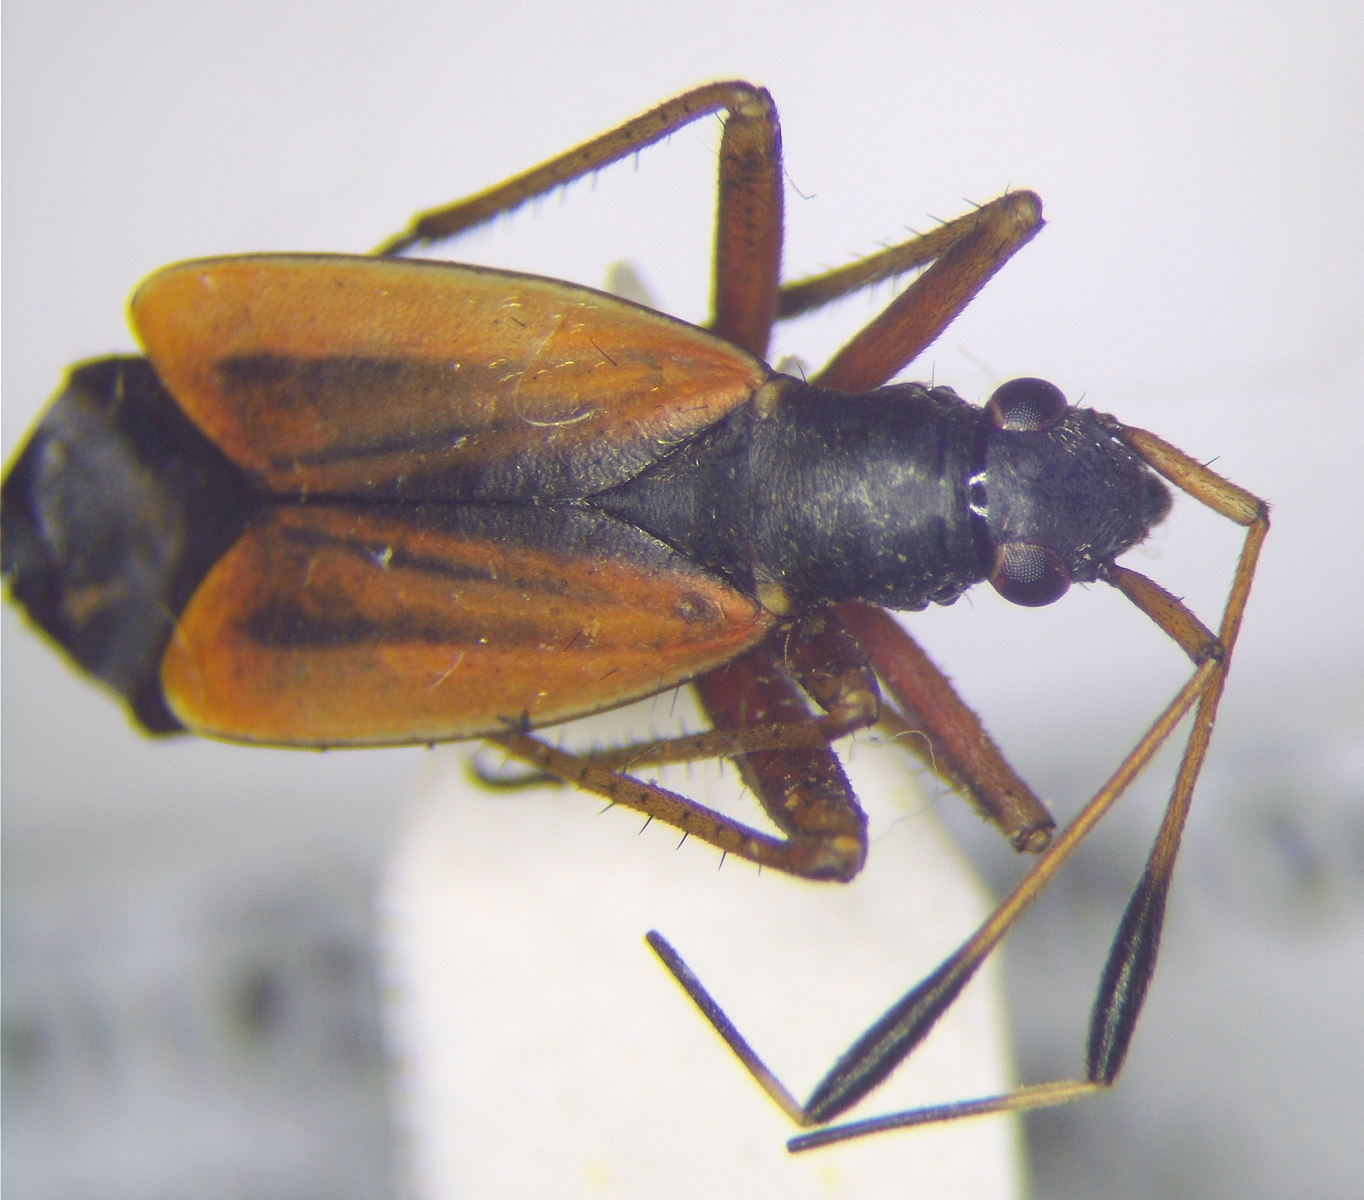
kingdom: Animalia
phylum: Arthropoda
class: Insecta
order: Hemiptera
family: Miridae
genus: Aphanosoma
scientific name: Aphanosoma italicum
